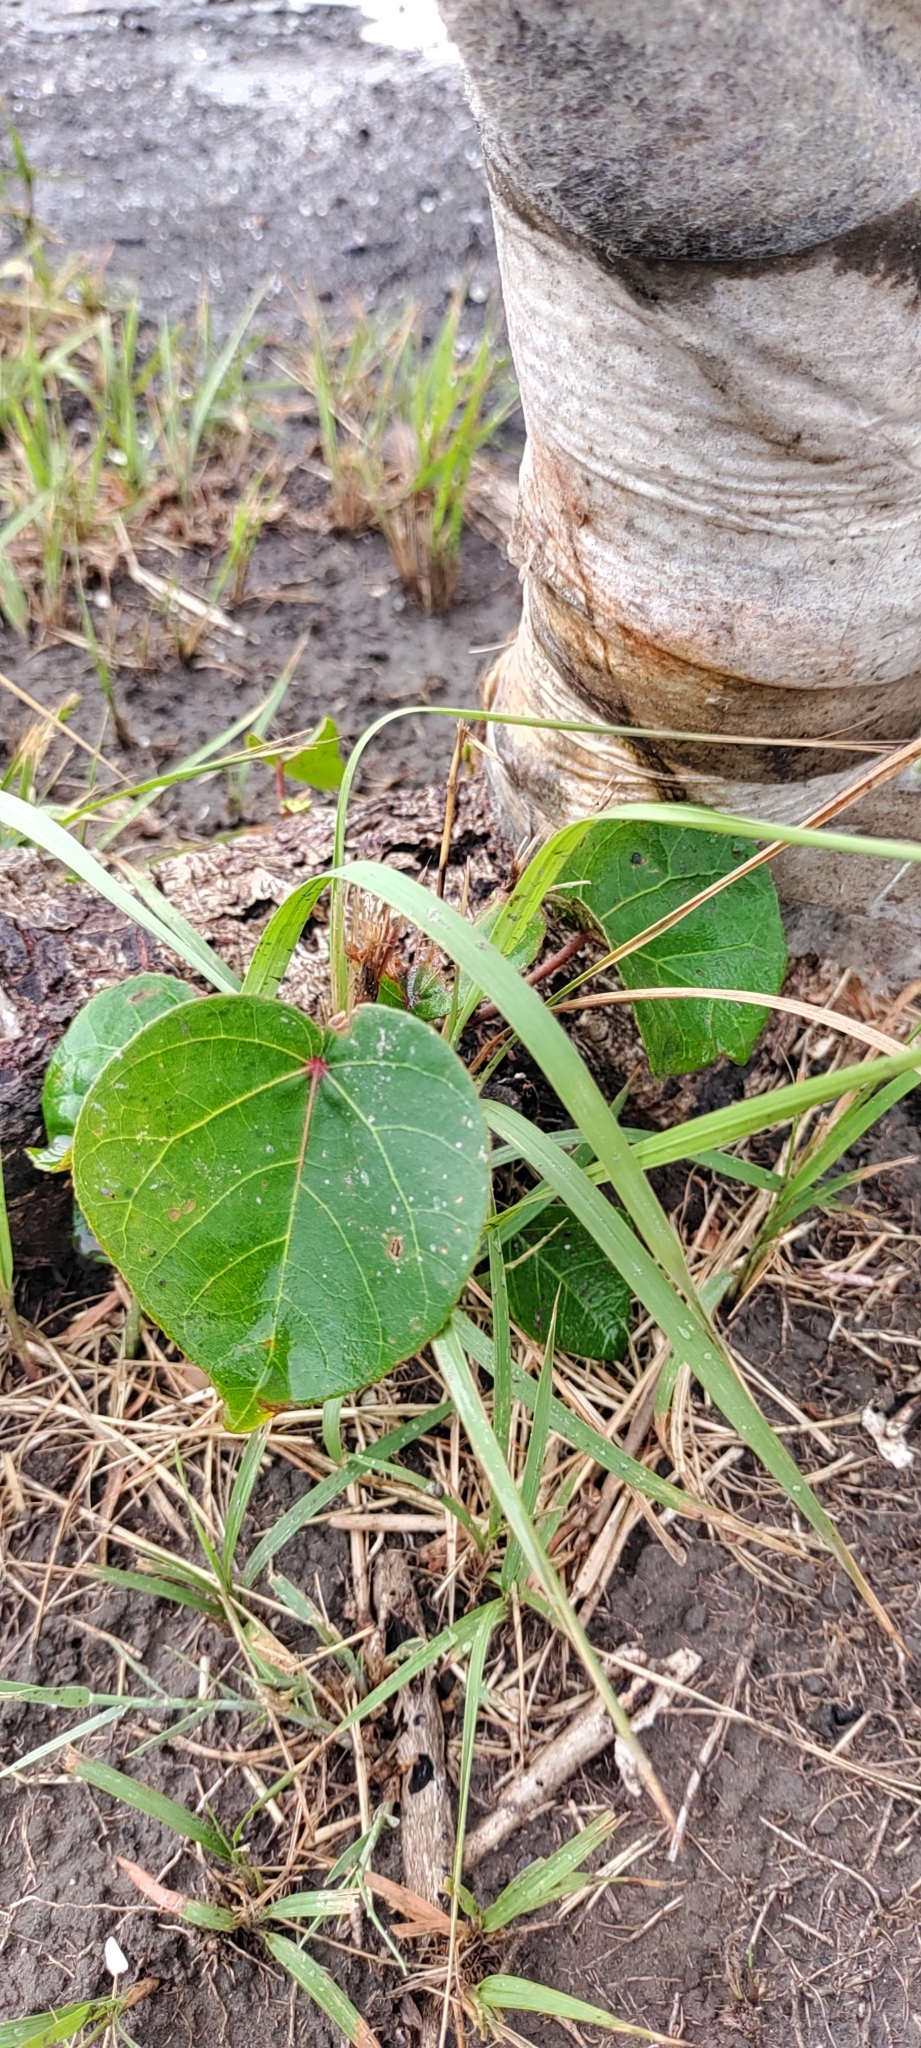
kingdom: Plantae
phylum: Tracheophyta
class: Magnoliopsida
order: Malvales
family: Malvaceae
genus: Talipariti
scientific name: Talipariti tiliaceum
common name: Sea hibiscus
